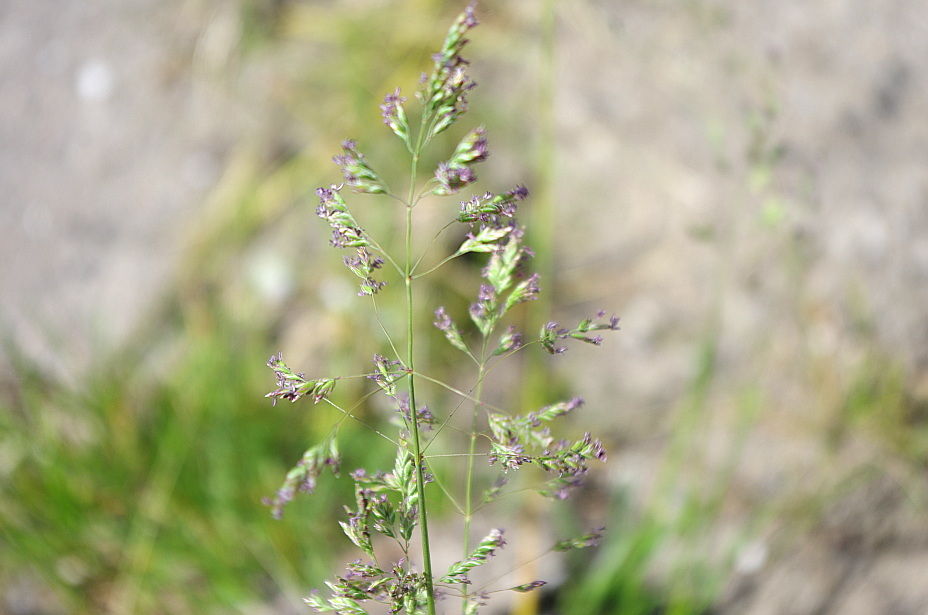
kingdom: Plantae
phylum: Tracheophyta
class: Liliopsida
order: Poales
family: Poaceae
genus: Poa
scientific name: Poa pratensis
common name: Kentucky bluegrass
